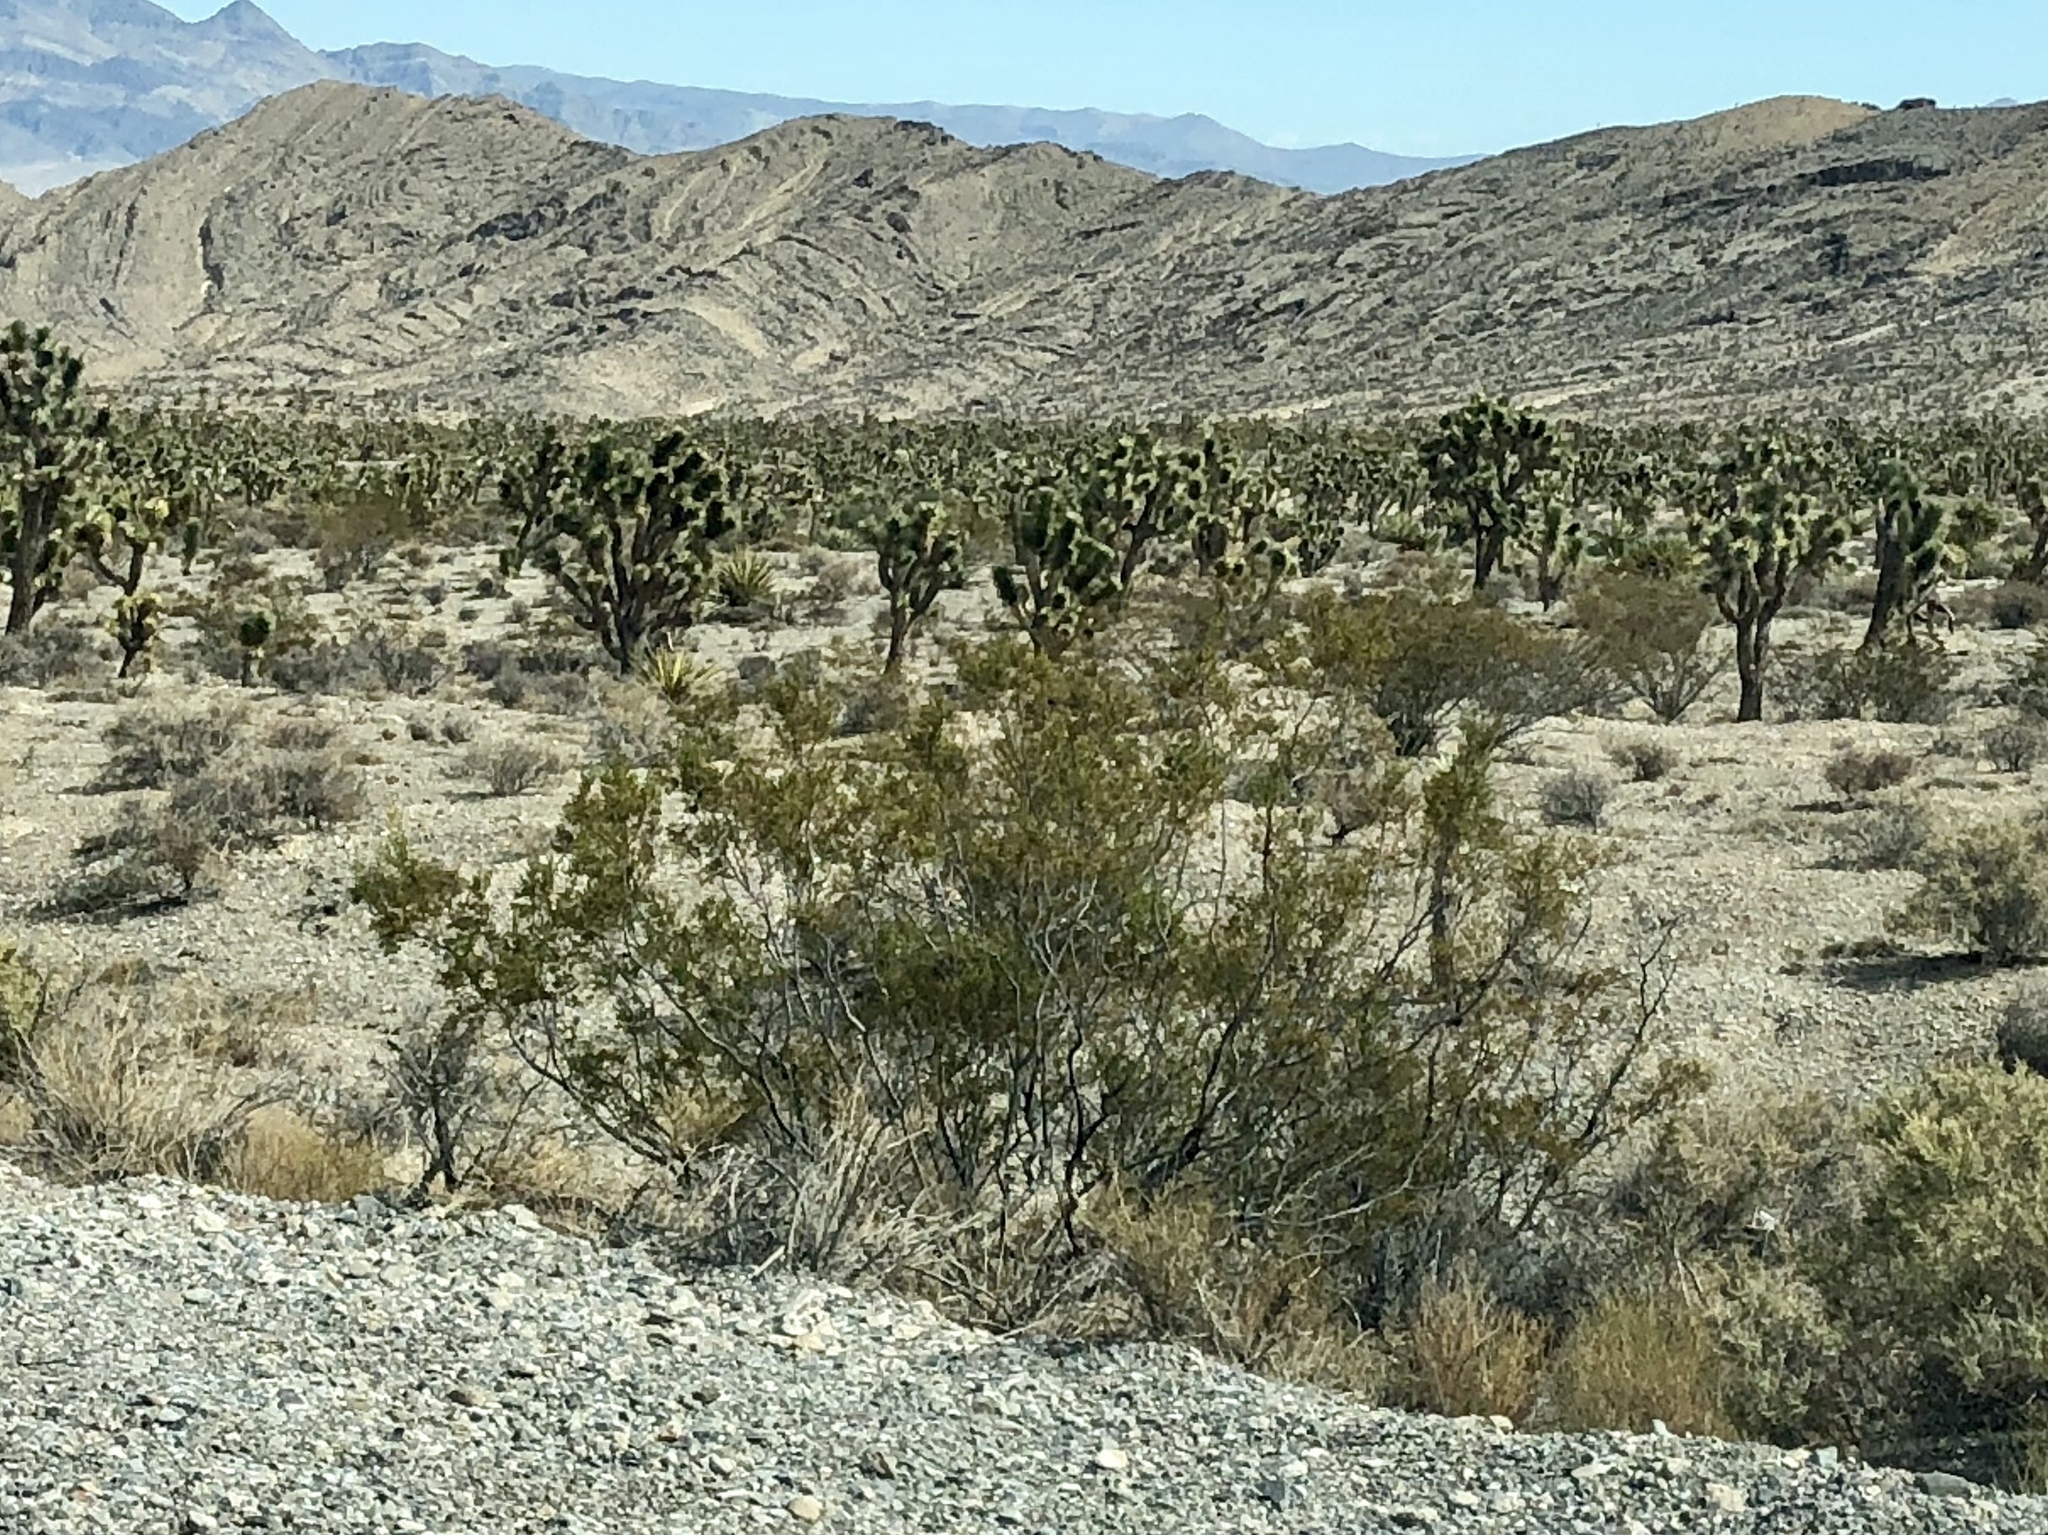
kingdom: Plantae
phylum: Tracheophyta
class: Magnoliopsida
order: Zygophyllales
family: Zygophyllaceae
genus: Larrea
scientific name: Larrea tridentata
